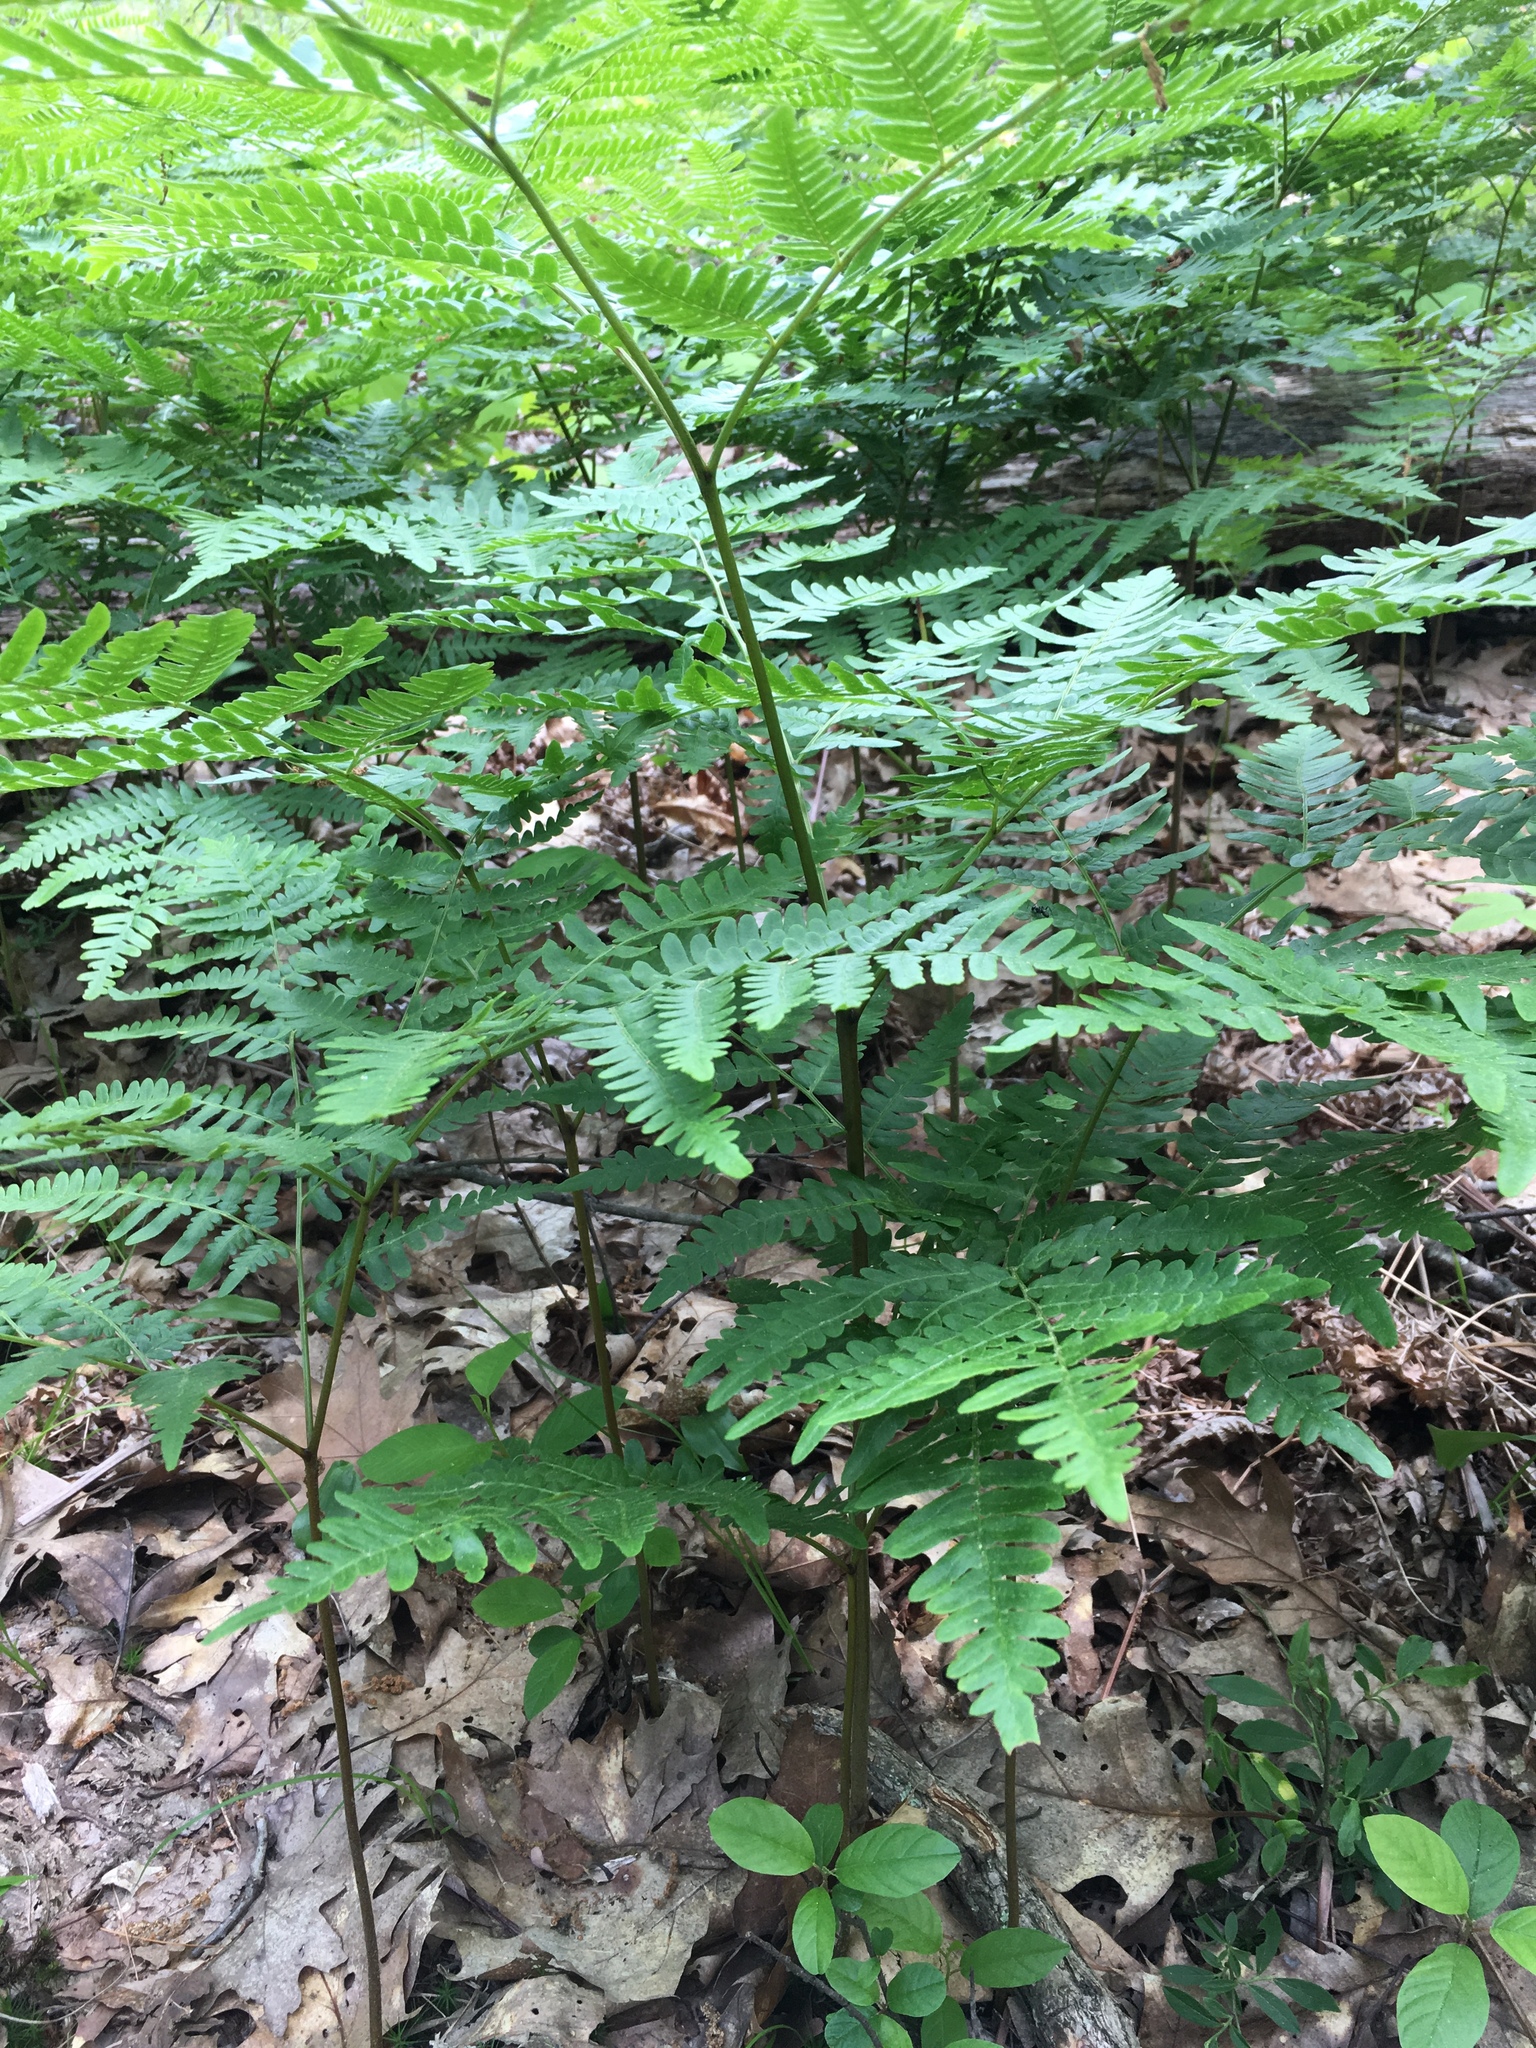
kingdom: Plantae
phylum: Tracheophyta
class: Polypodiopsida
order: Polypodiales
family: Dennstaedtiaceae
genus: Pteridium
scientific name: Pteridium aquilinum
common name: Bracken
